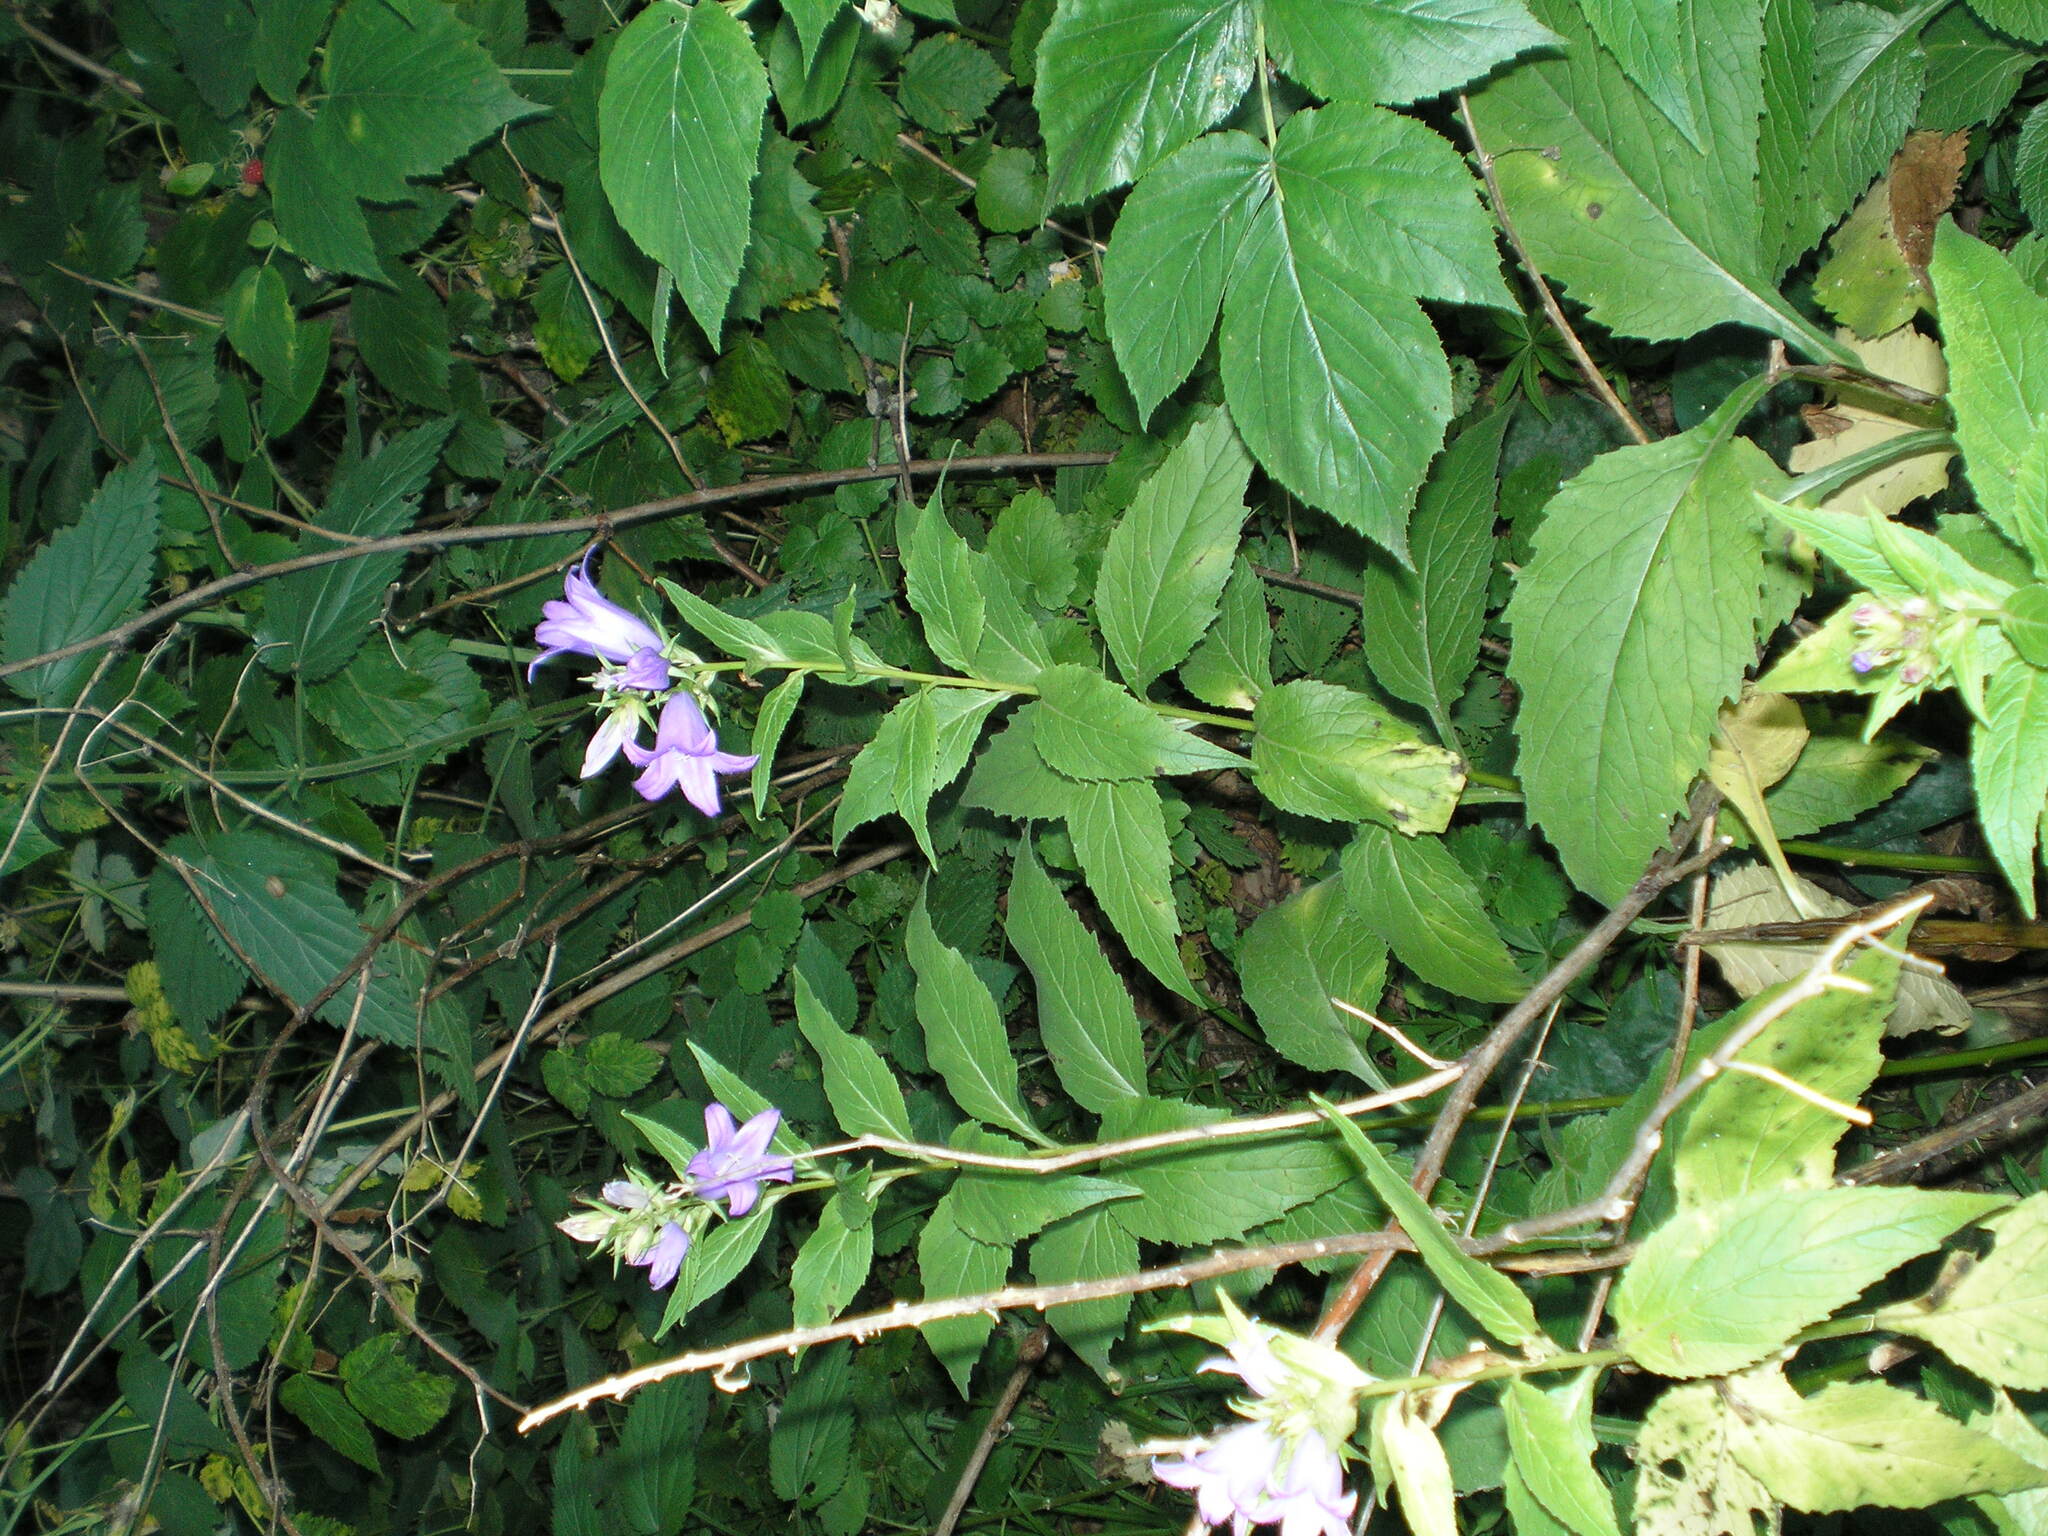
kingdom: Plantae
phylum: Tracheophyta
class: Magnoliopsida
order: Asterales
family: Campanulaceae
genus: Campanula
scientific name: Campanula latifolia
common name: Giant bellflower
